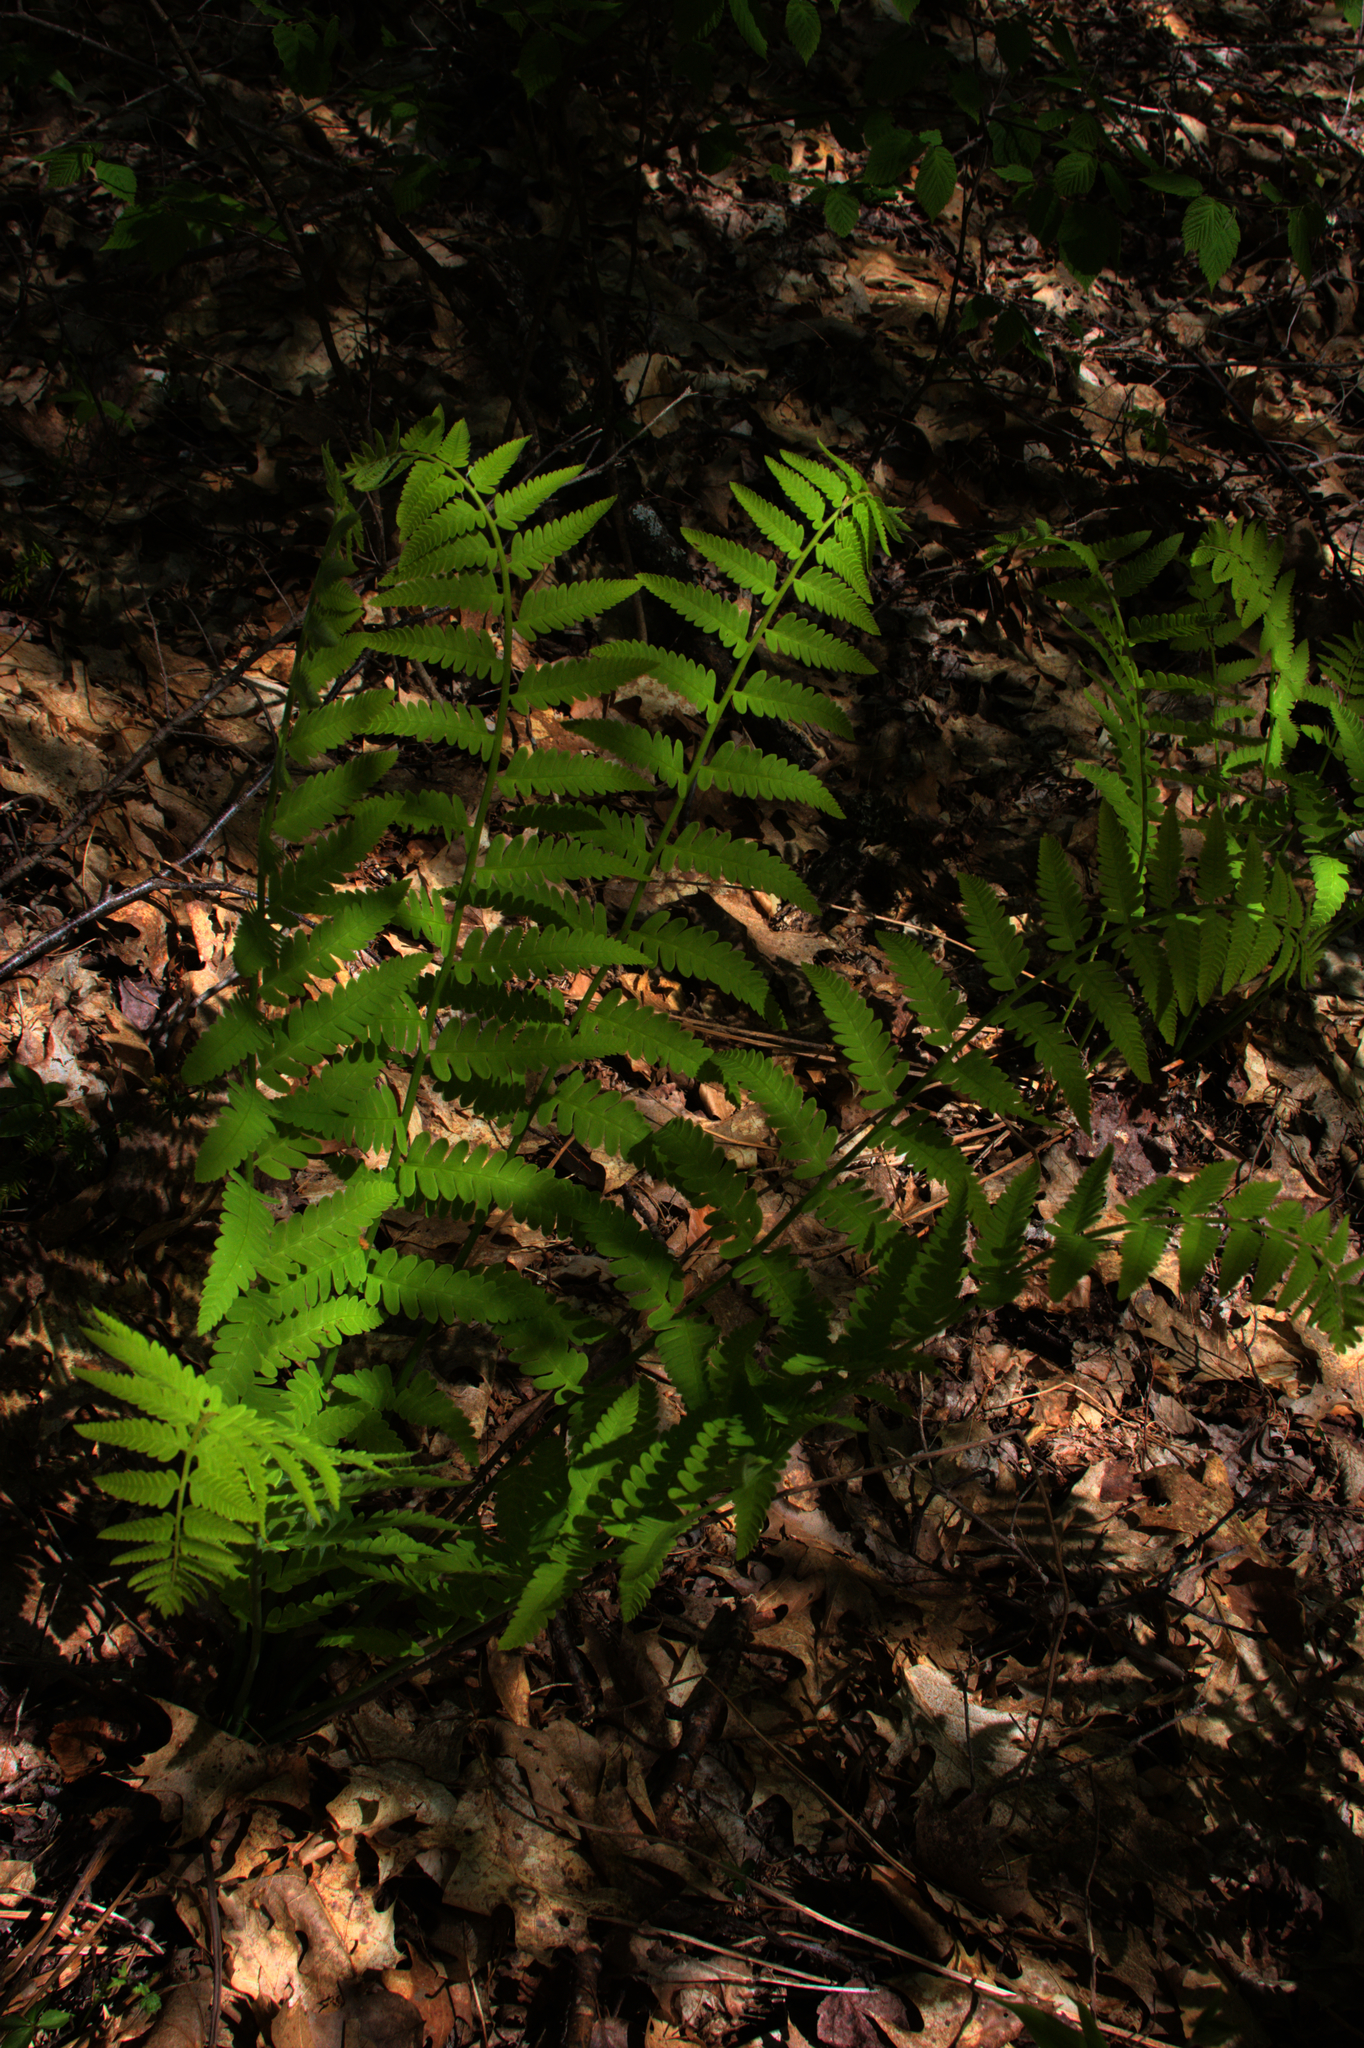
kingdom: Plantae
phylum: Tracheophyta
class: Polypodiopsida
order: Osmundales
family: Osmundaceae
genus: Claytosmunda
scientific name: Claytosmunda claytoniana
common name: Clayton's fern
